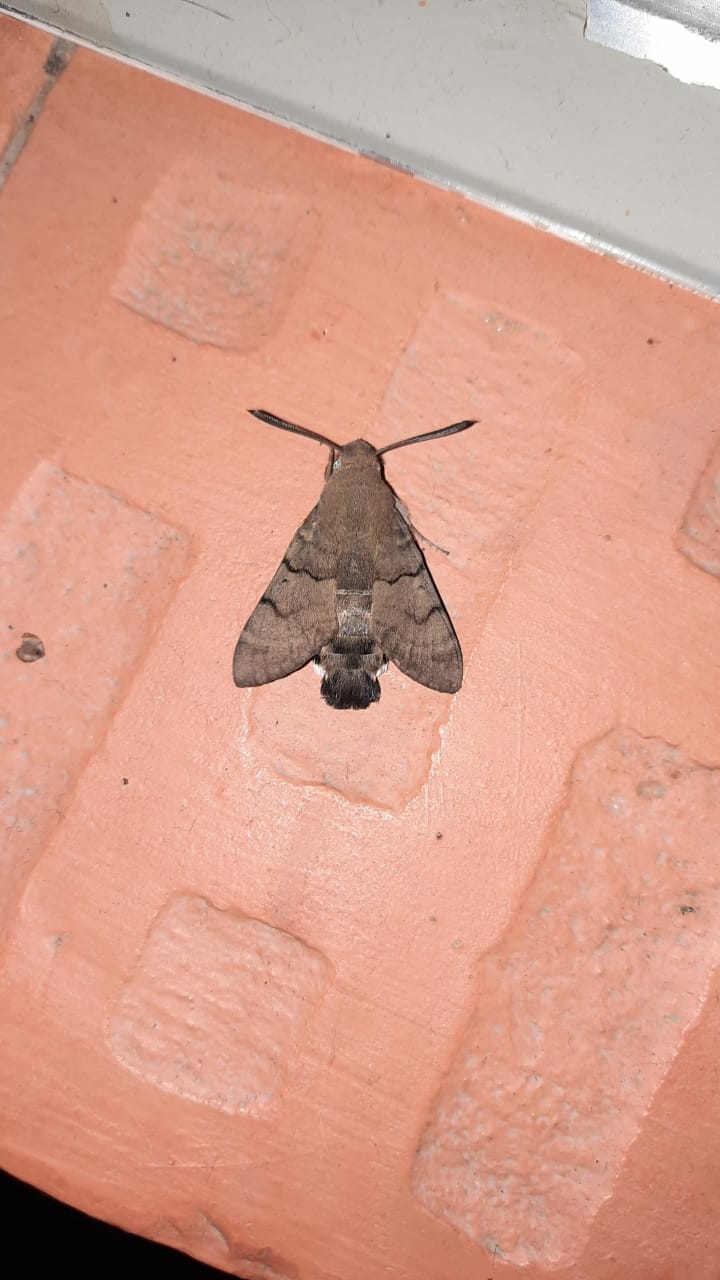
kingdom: Animalia
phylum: Arthropoda
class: Insecta
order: Lepidoptera
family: Sphingidae
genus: Macroglossum
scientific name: Macroglossum stellatarum
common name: Humming-bird hawk-moth
